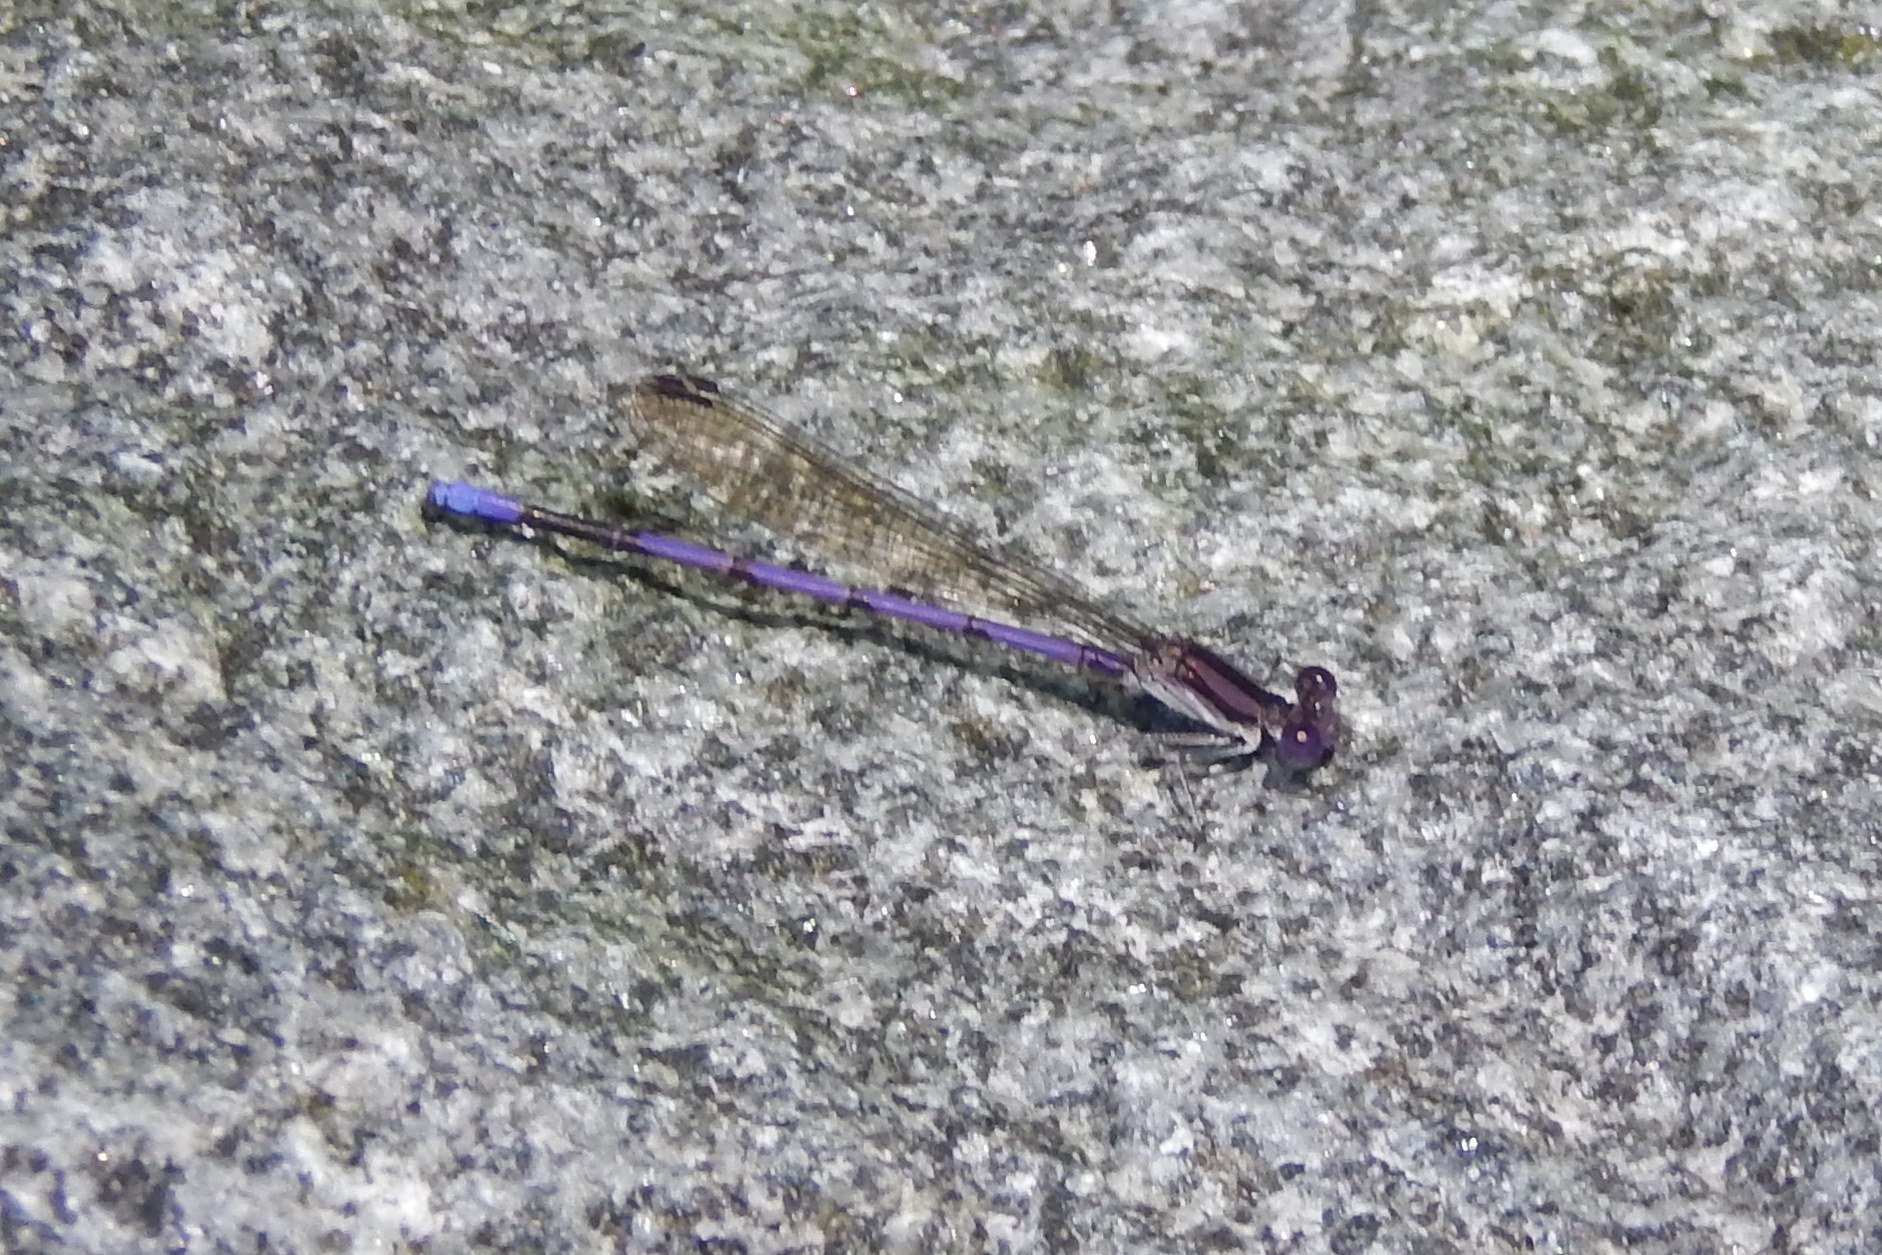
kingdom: Animalia
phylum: Arthropoda
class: Insecta
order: Odonata
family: Coenagrionidae
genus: Argia
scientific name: Argia fumipennis
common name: Variable dancer
